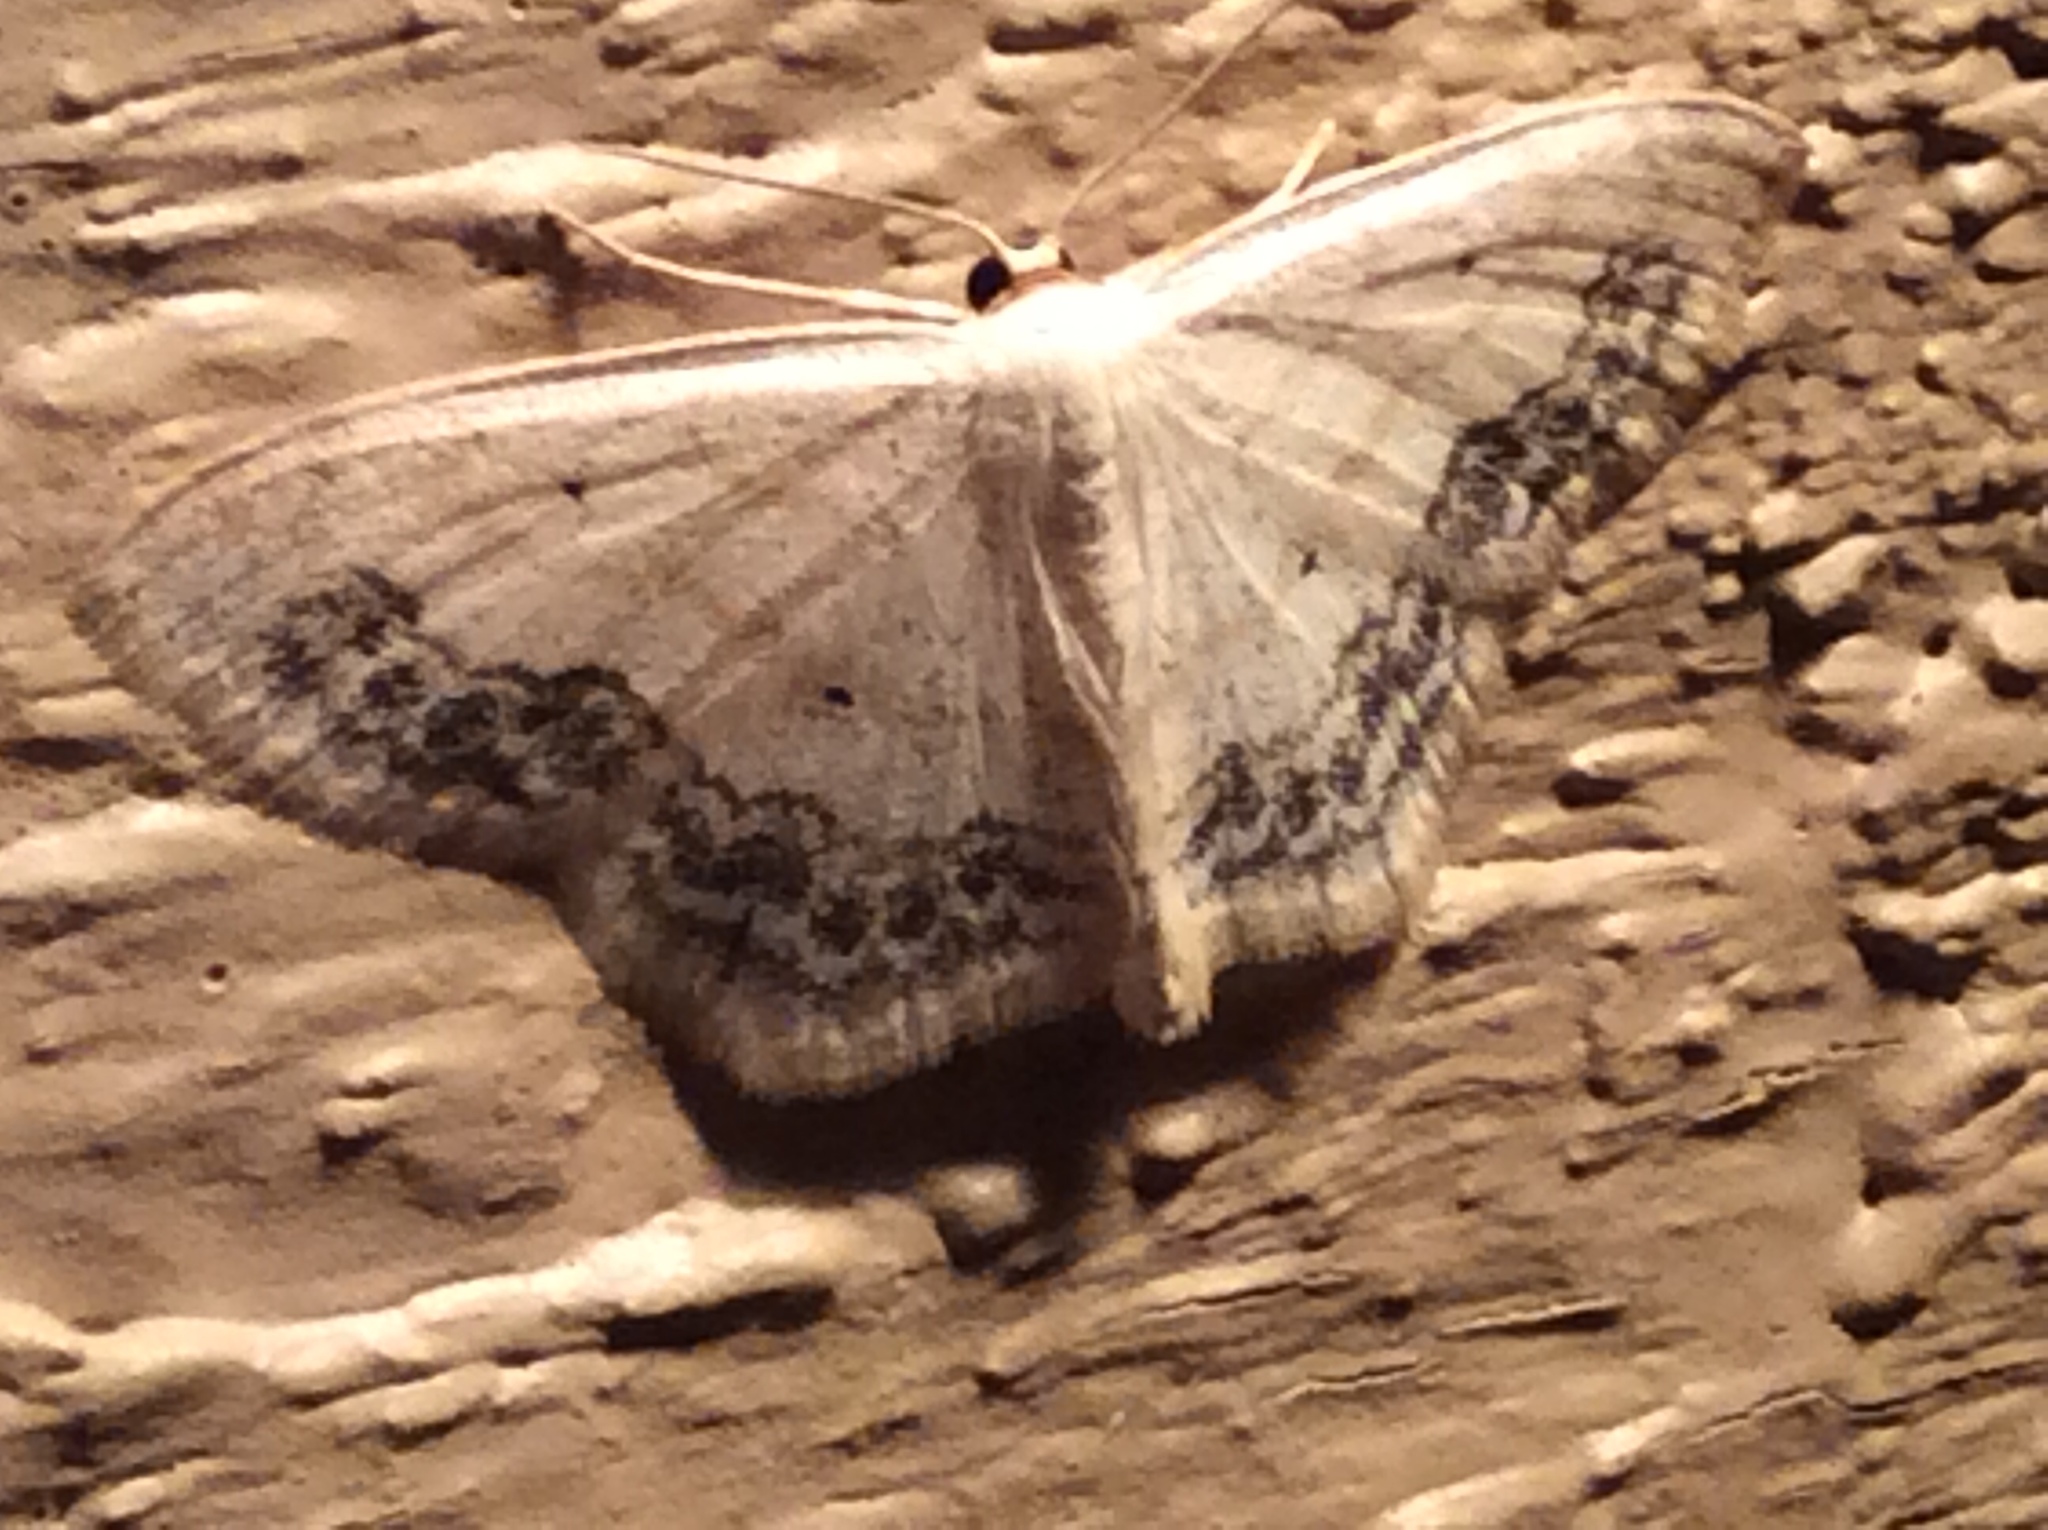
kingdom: Animalia
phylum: Arthropoda
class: Insecta
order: Lepidoptera
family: Geometridae
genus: Scopula
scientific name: Scopula limboundata
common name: Large lace border
